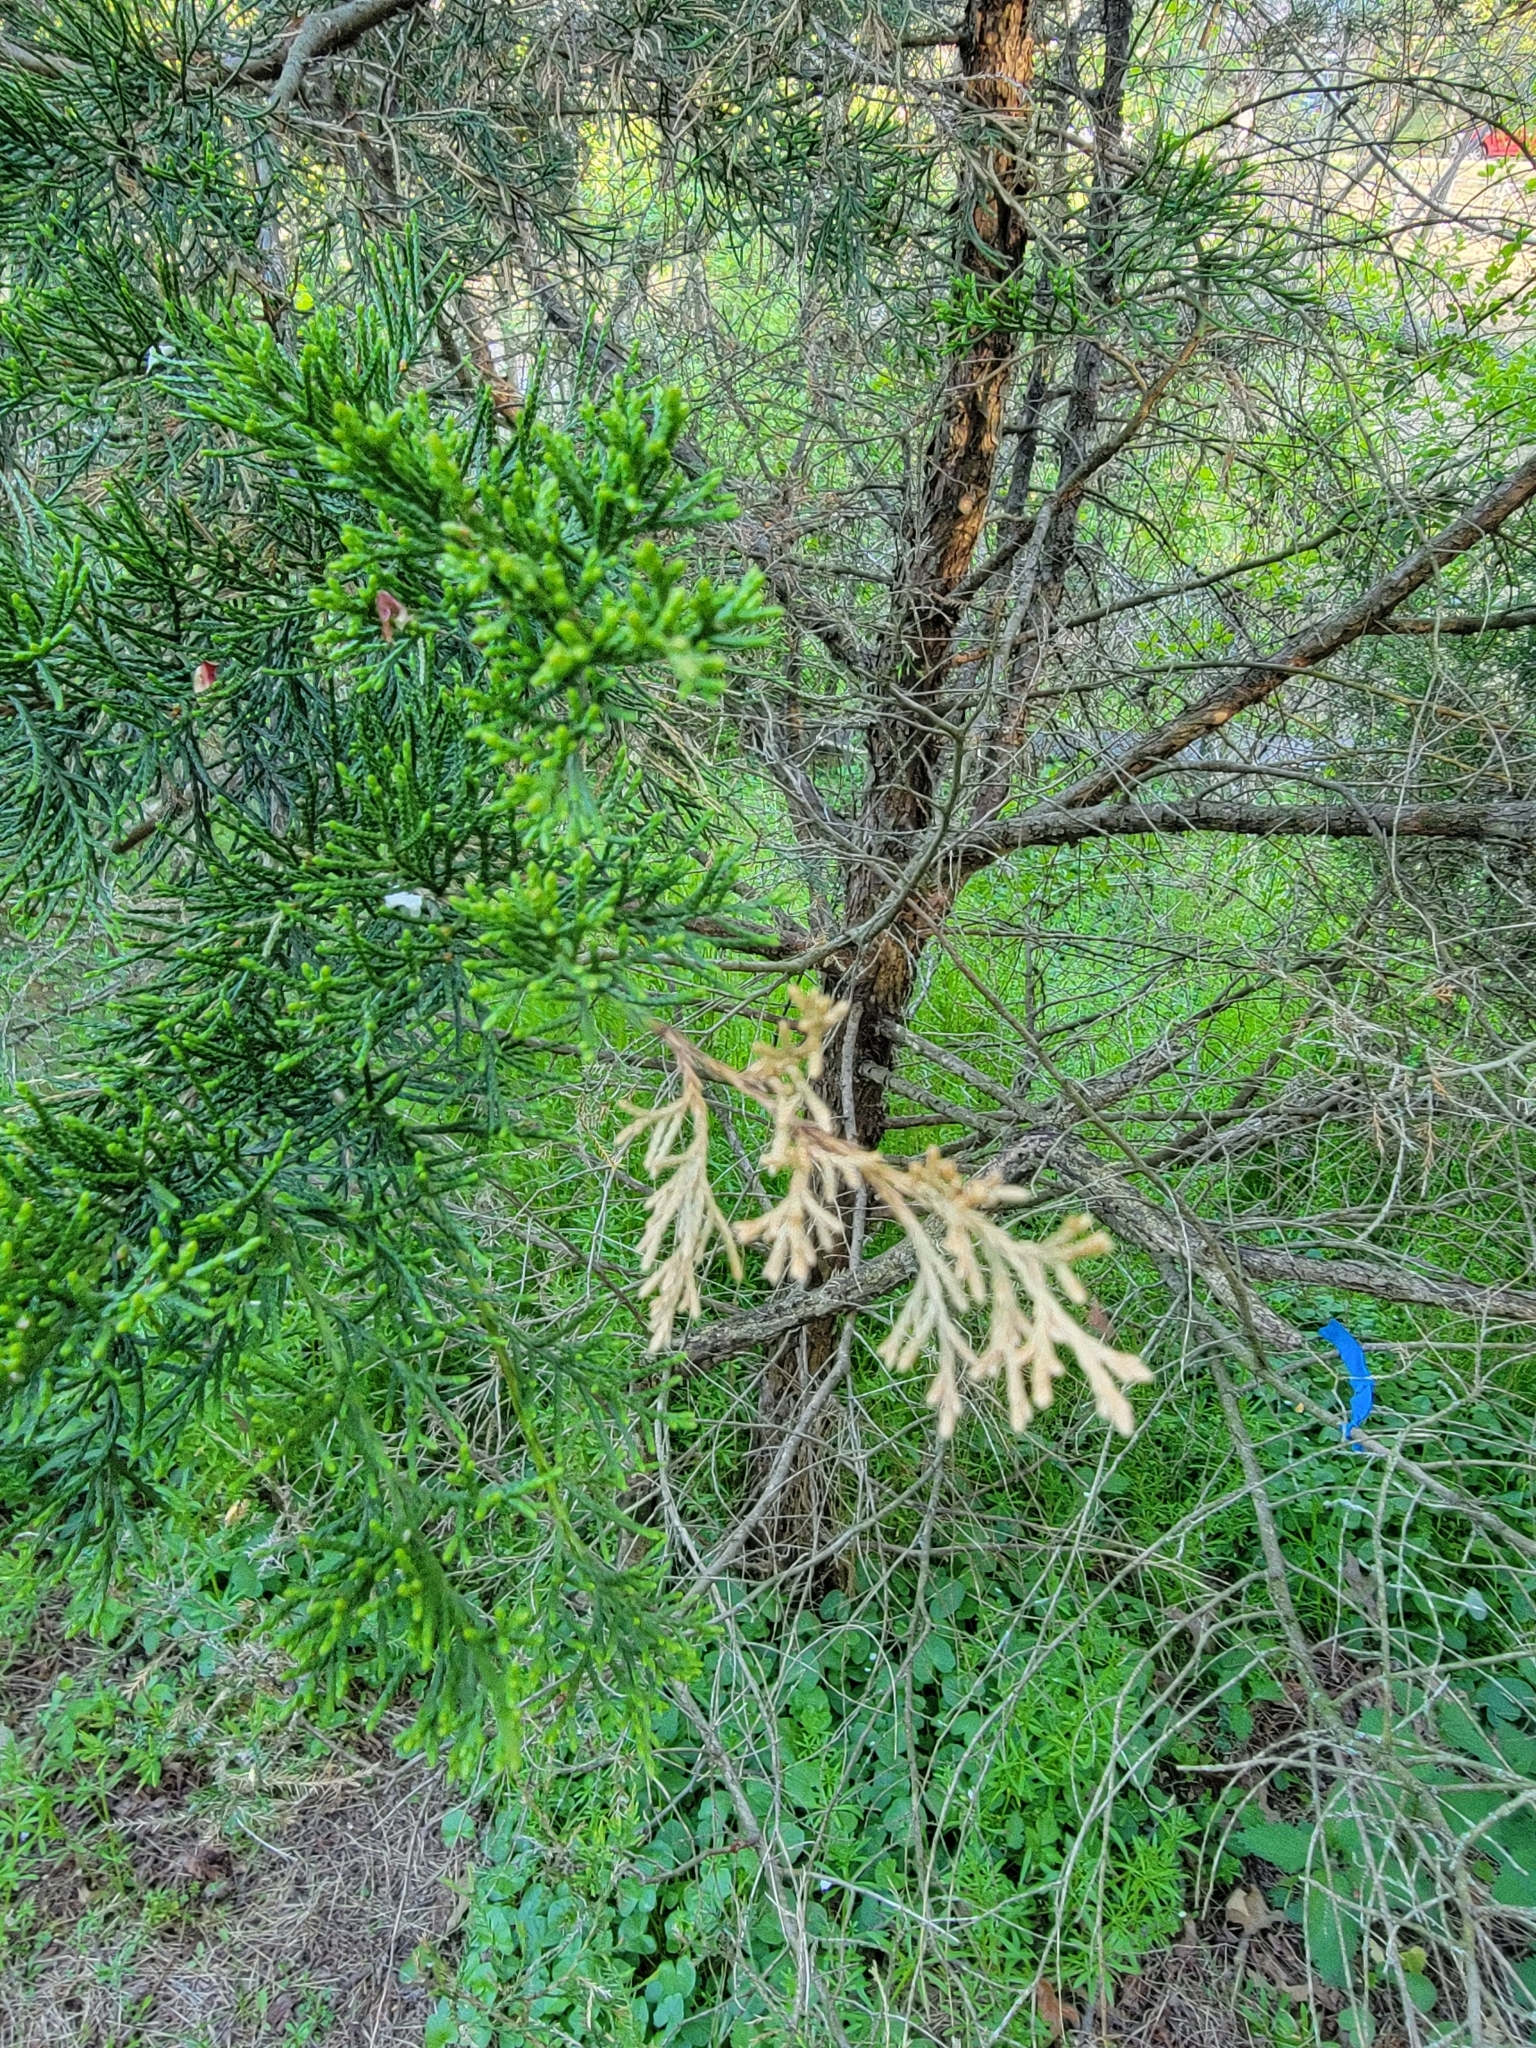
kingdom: Plantae
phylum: Tracheophyta
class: Pinopsida
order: Pinales
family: Cupressaceae
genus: Juniperus
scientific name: Juniperus virginiana
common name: Red juniper
